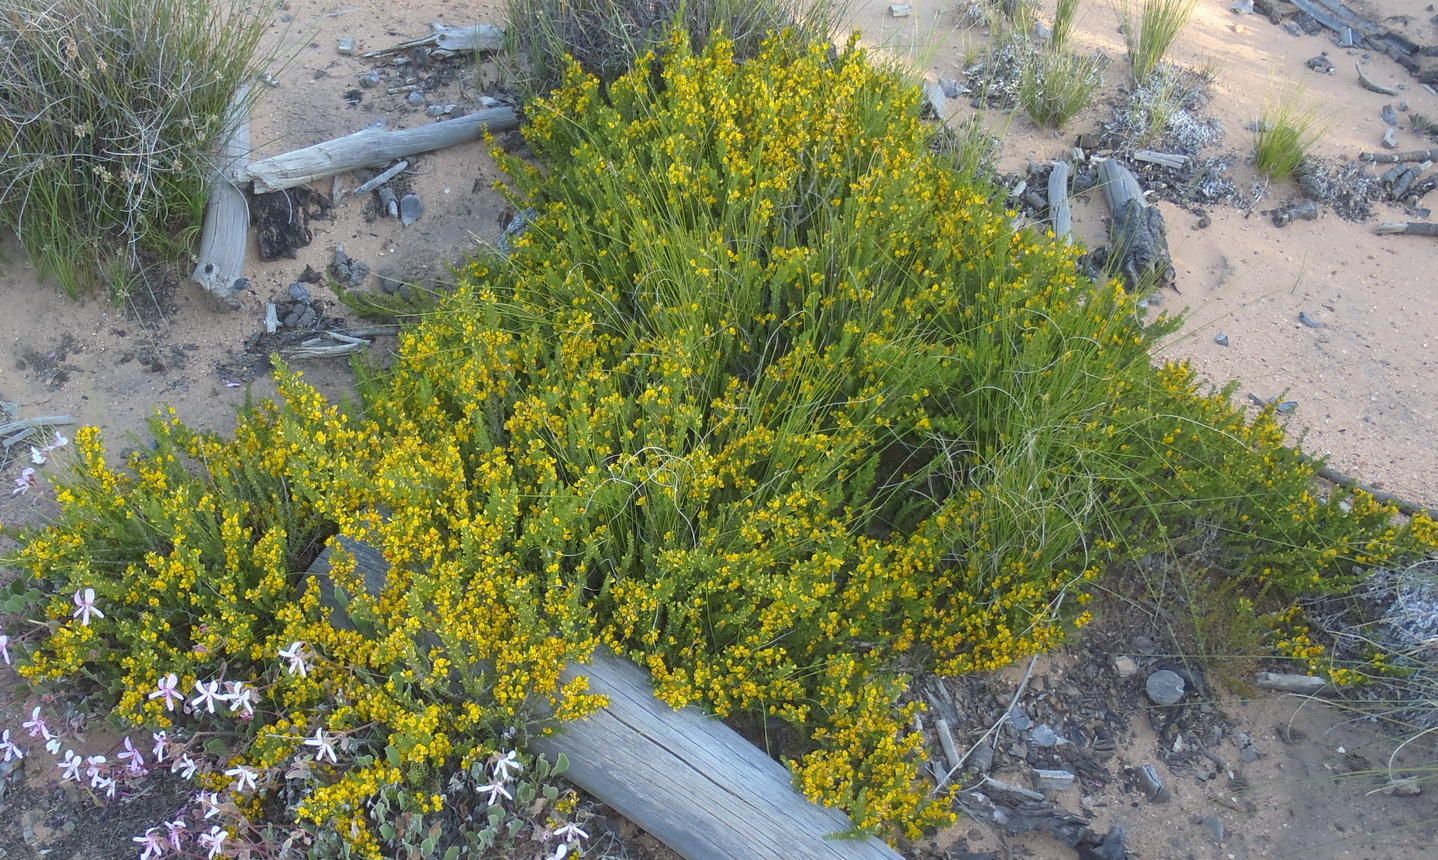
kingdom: Plantae
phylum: Tracheophyta
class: Magnoliopsida
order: Fabales
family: Fabaceae
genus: Aspalathus
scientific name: Aspalathus subtingens
